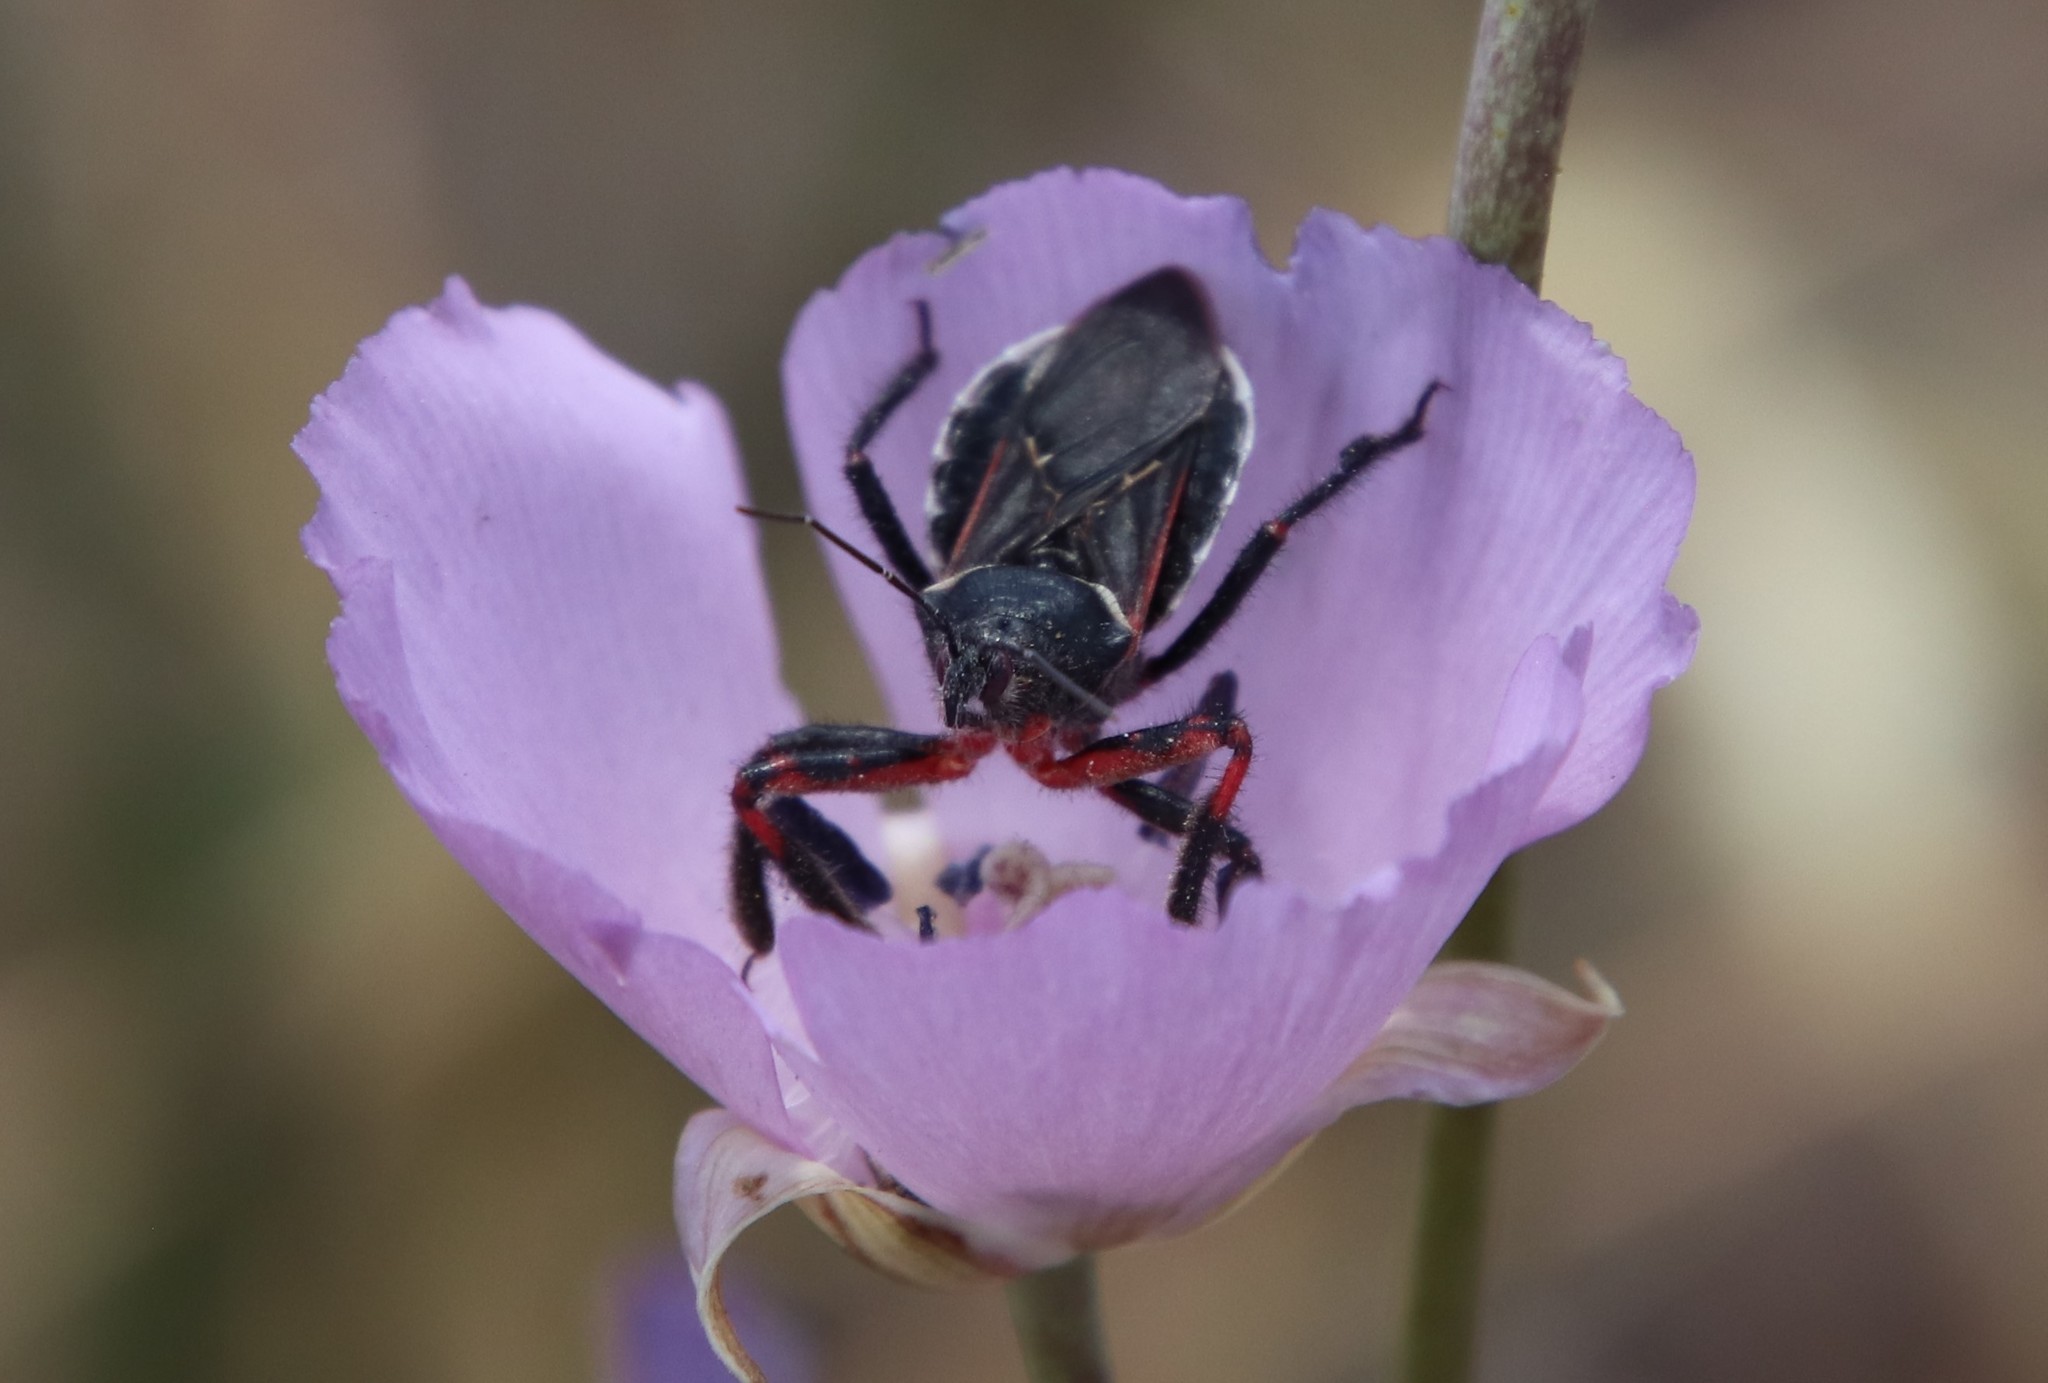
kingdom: Animalia
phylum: Arthropoda
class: Insecta
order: Hemiptera
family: Reduviidae
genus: Apiomerus
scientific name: Apiomerus californicus
